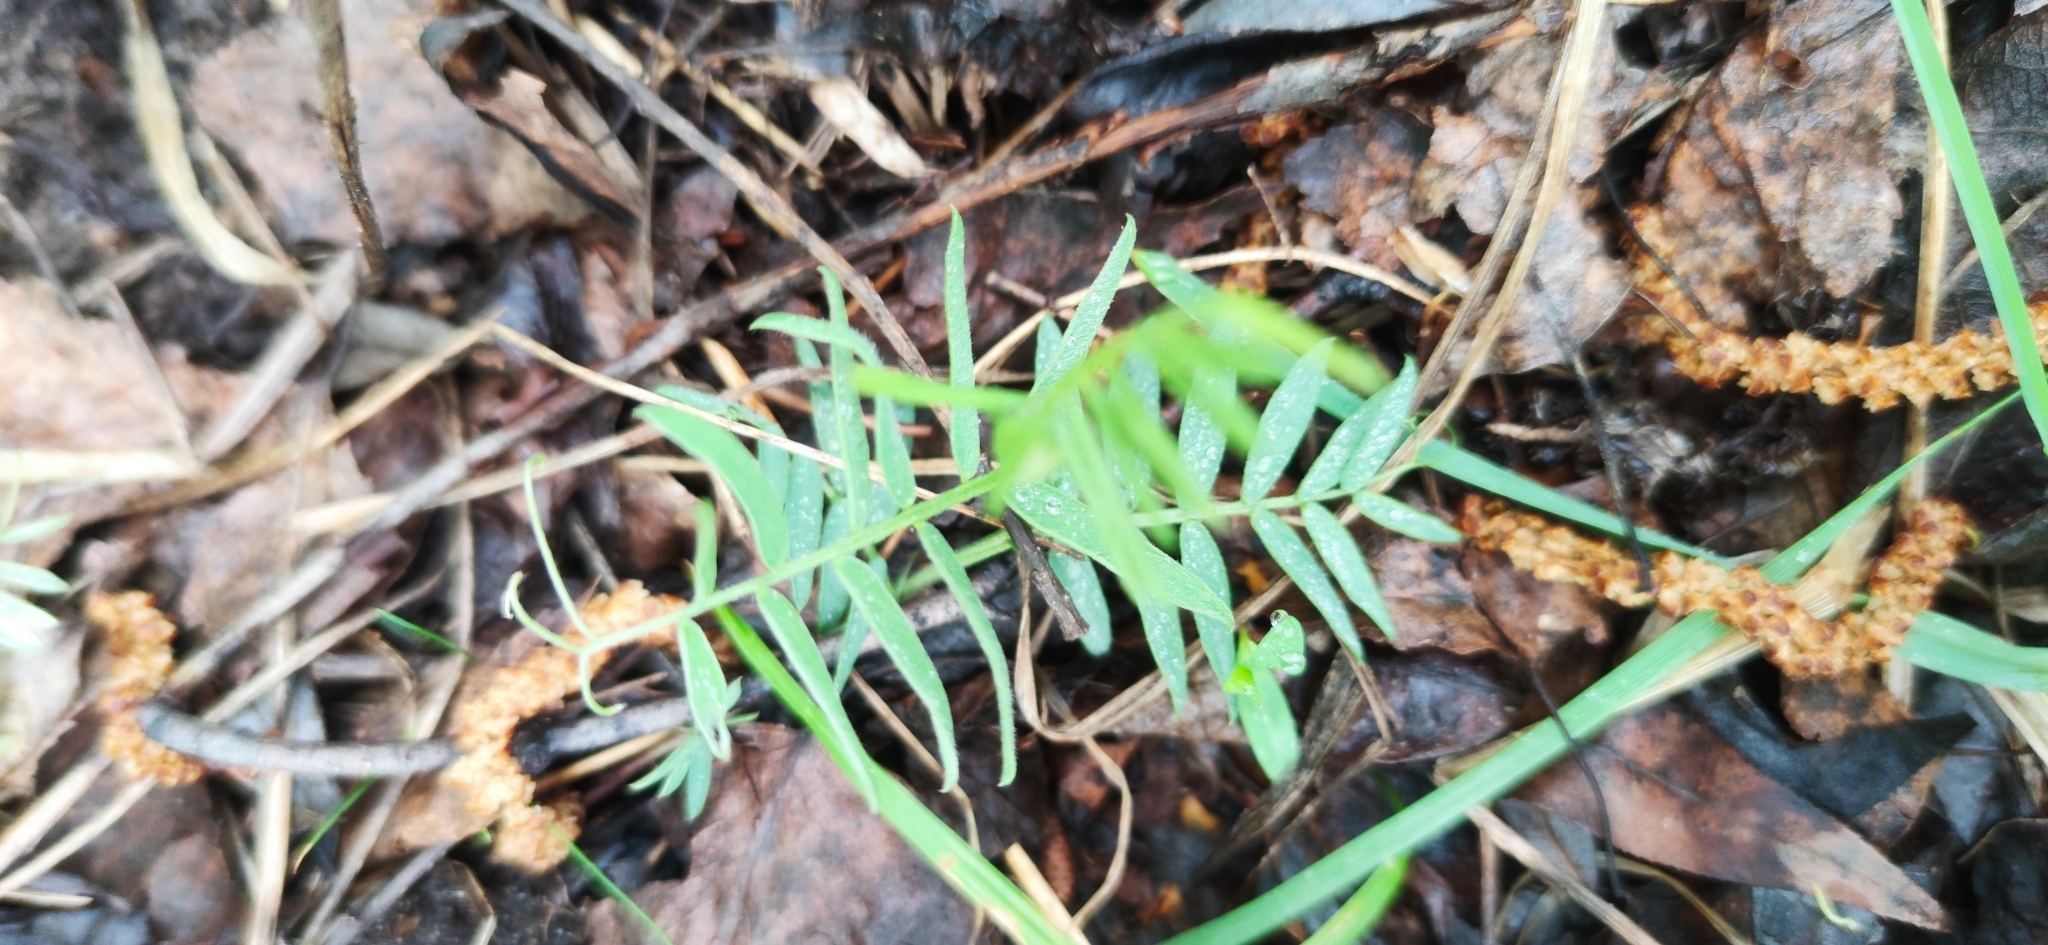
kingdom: Plantae
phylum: Tracheophyta
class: Magnoliopsida
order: Fabales
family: Fabaceae
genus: Vicia
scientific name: Vicia cracca
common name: Bird vetch
